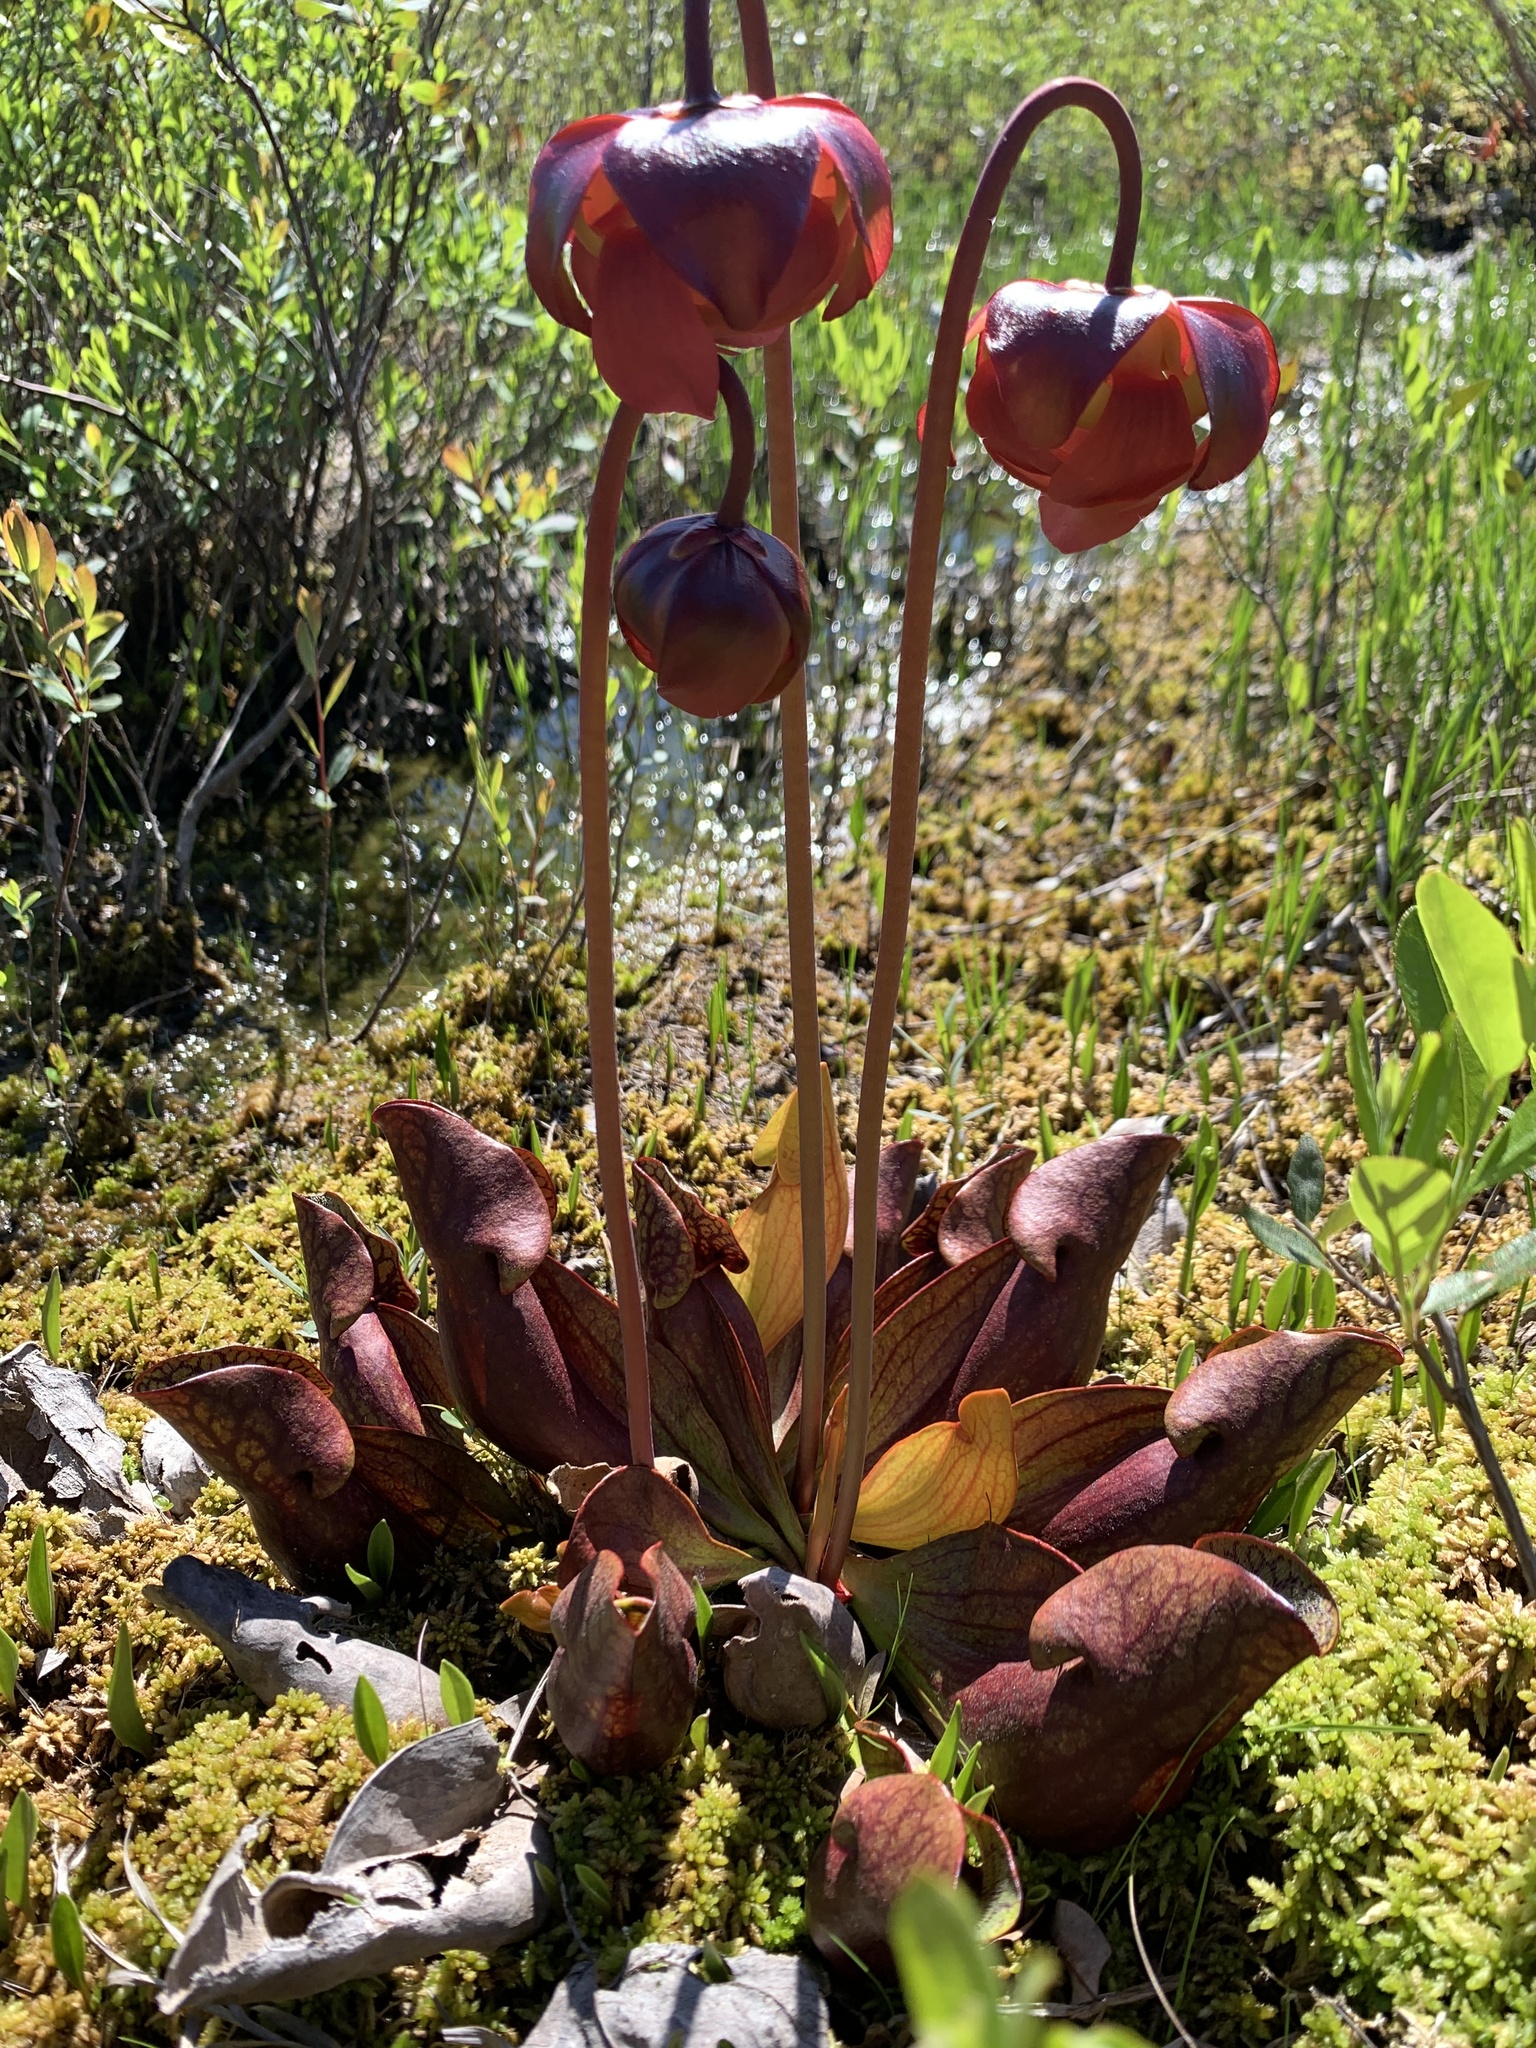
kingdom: Plantae
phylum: Tracheophyta
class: Magnoliopsida
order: Ericales
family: Sarraceniaceae
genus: Sarracenia
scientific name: Sarracenia purpurea
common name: Pitcherplant
